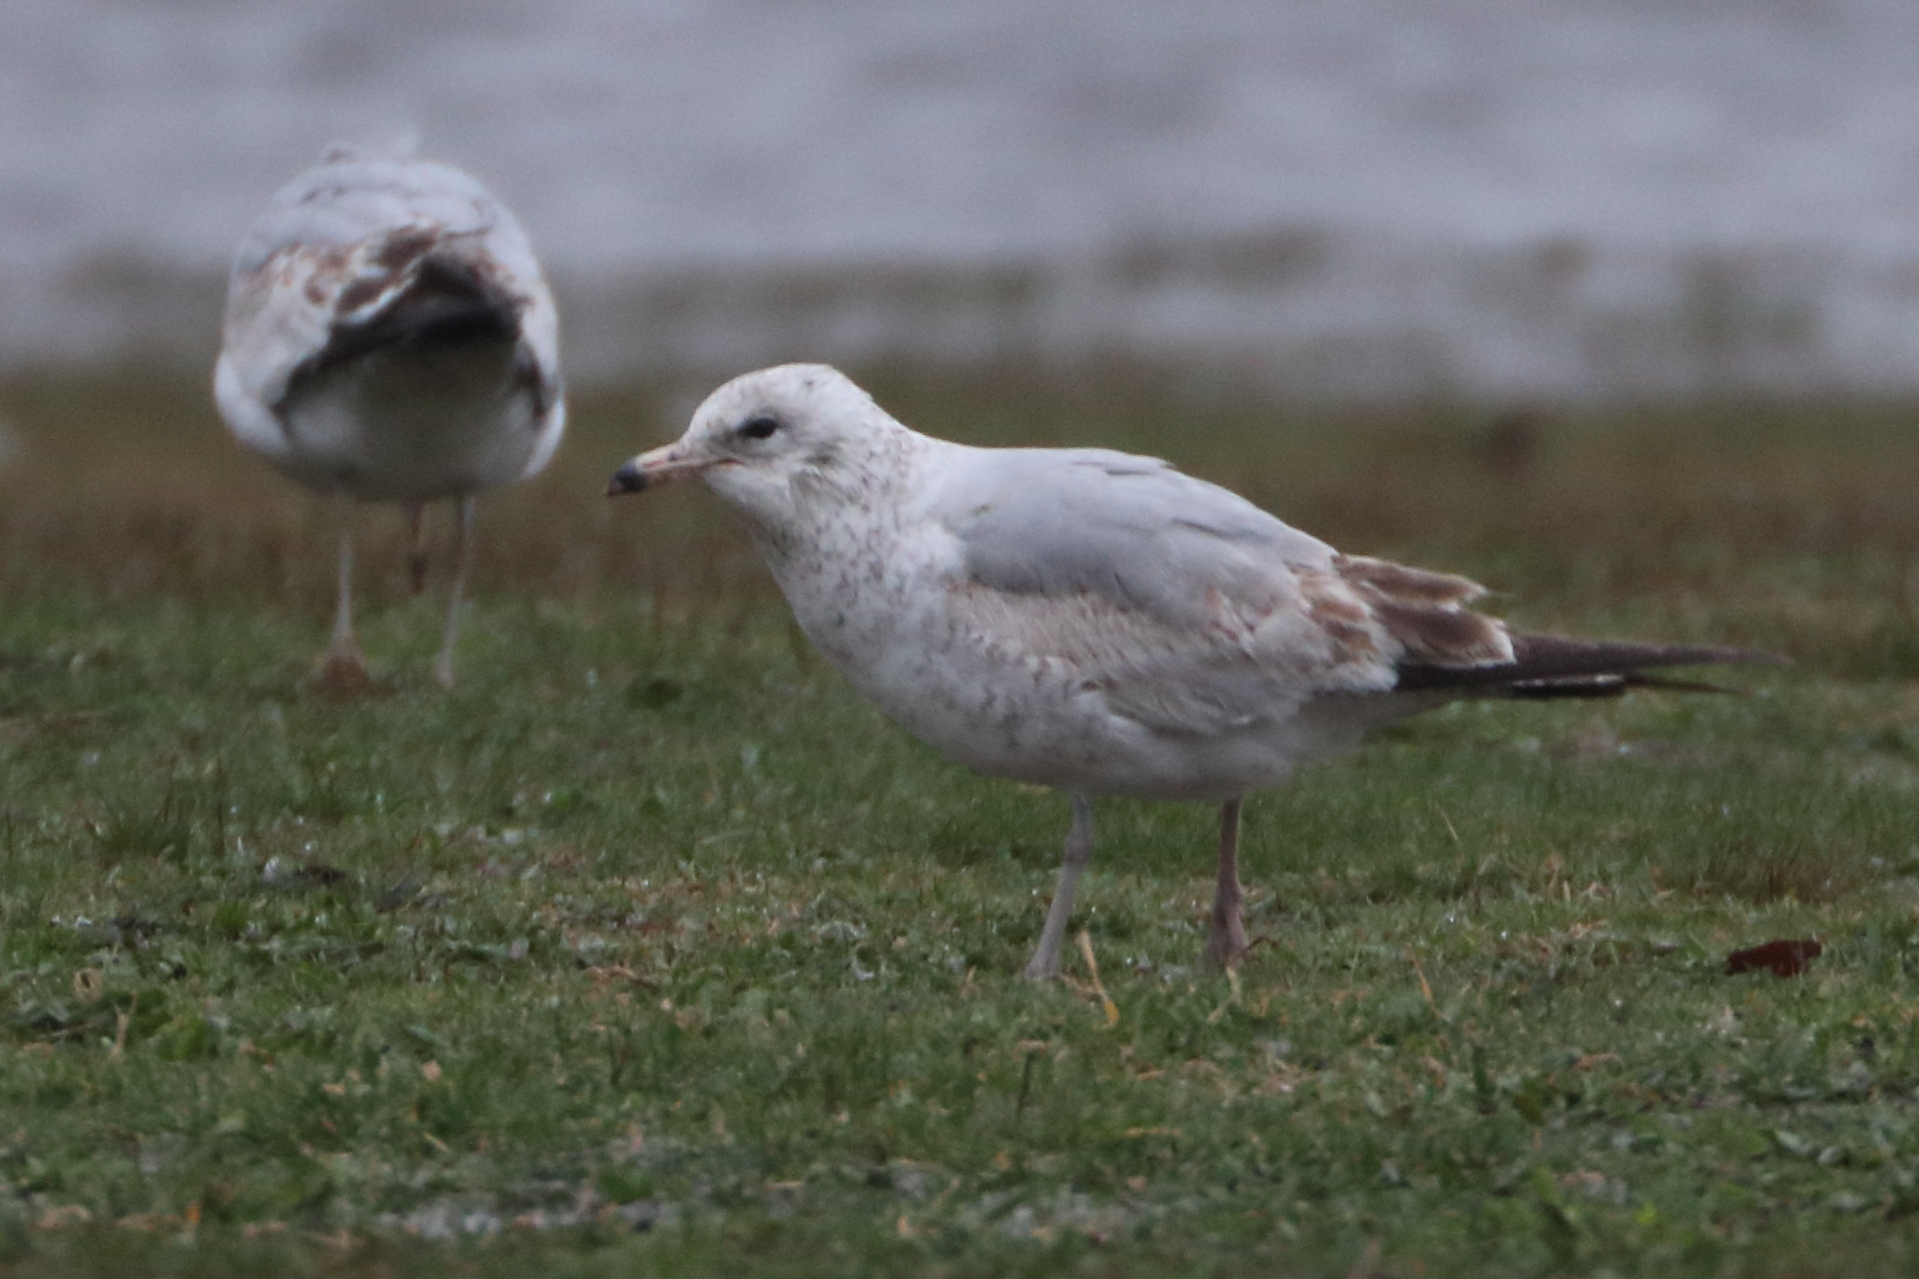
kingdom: Animalia
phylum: Chordata
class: Aves
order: Charadriiformes
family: Laridae
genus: Larus
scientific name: Larus delawarensis
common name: Ring-billed gull
